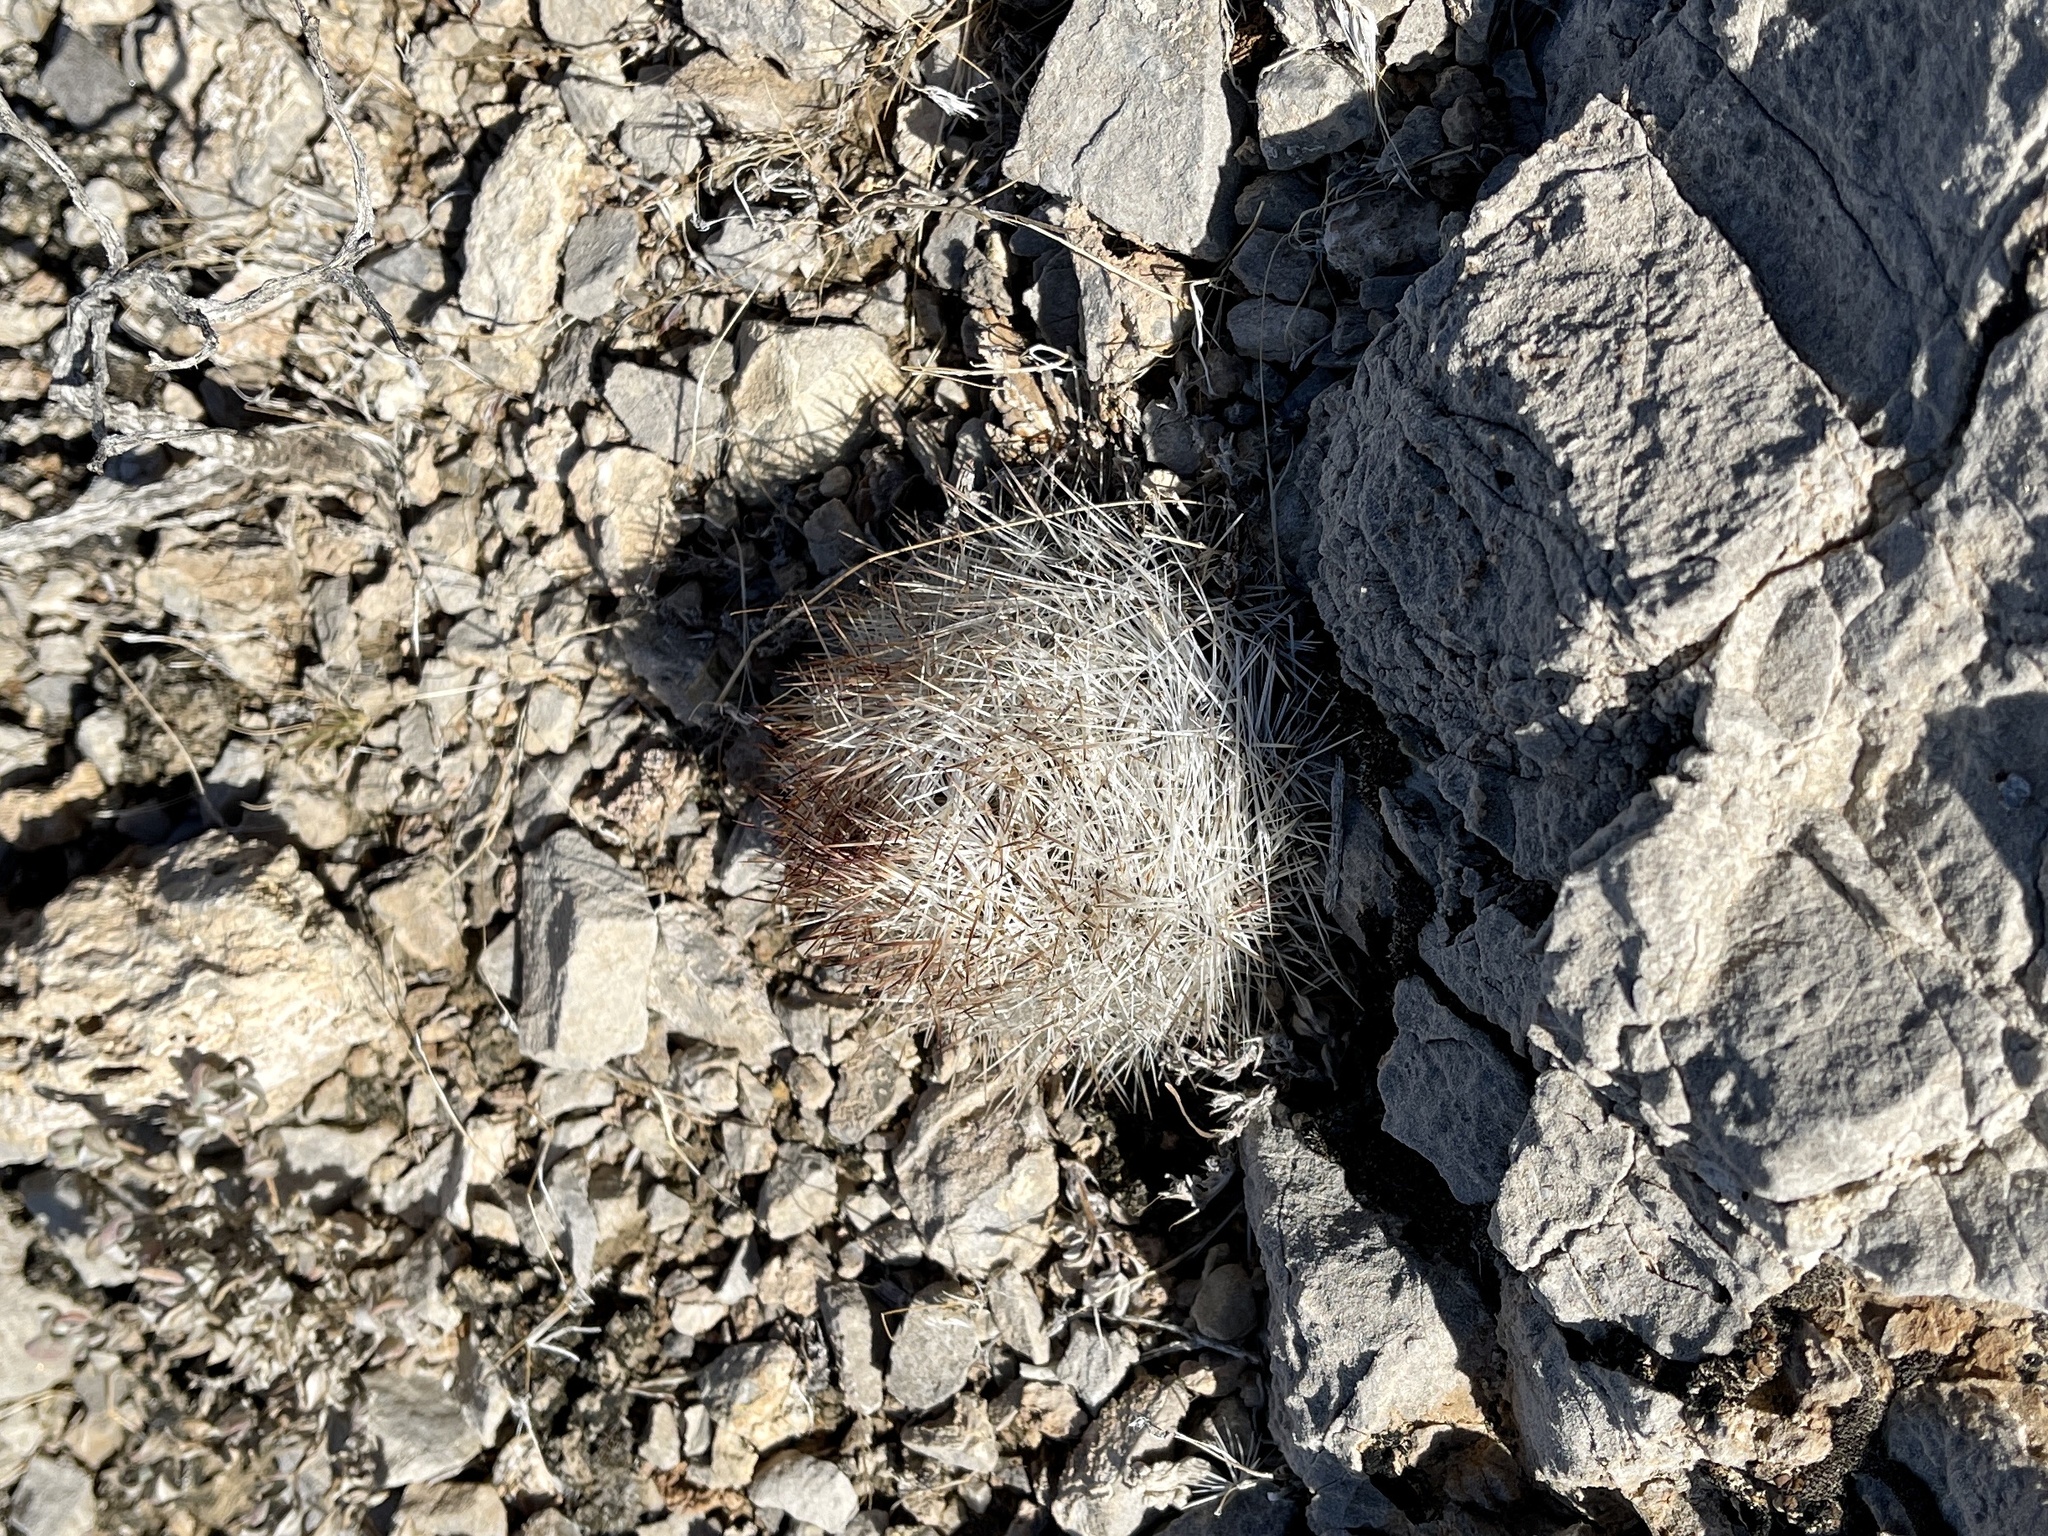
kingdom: Plantae
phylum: Tracheophyta
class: Magnoliopsida
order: Caryophyllales
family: Cactaceae
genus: Pelecyphora
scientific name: Pelecyphora dasyacantha
